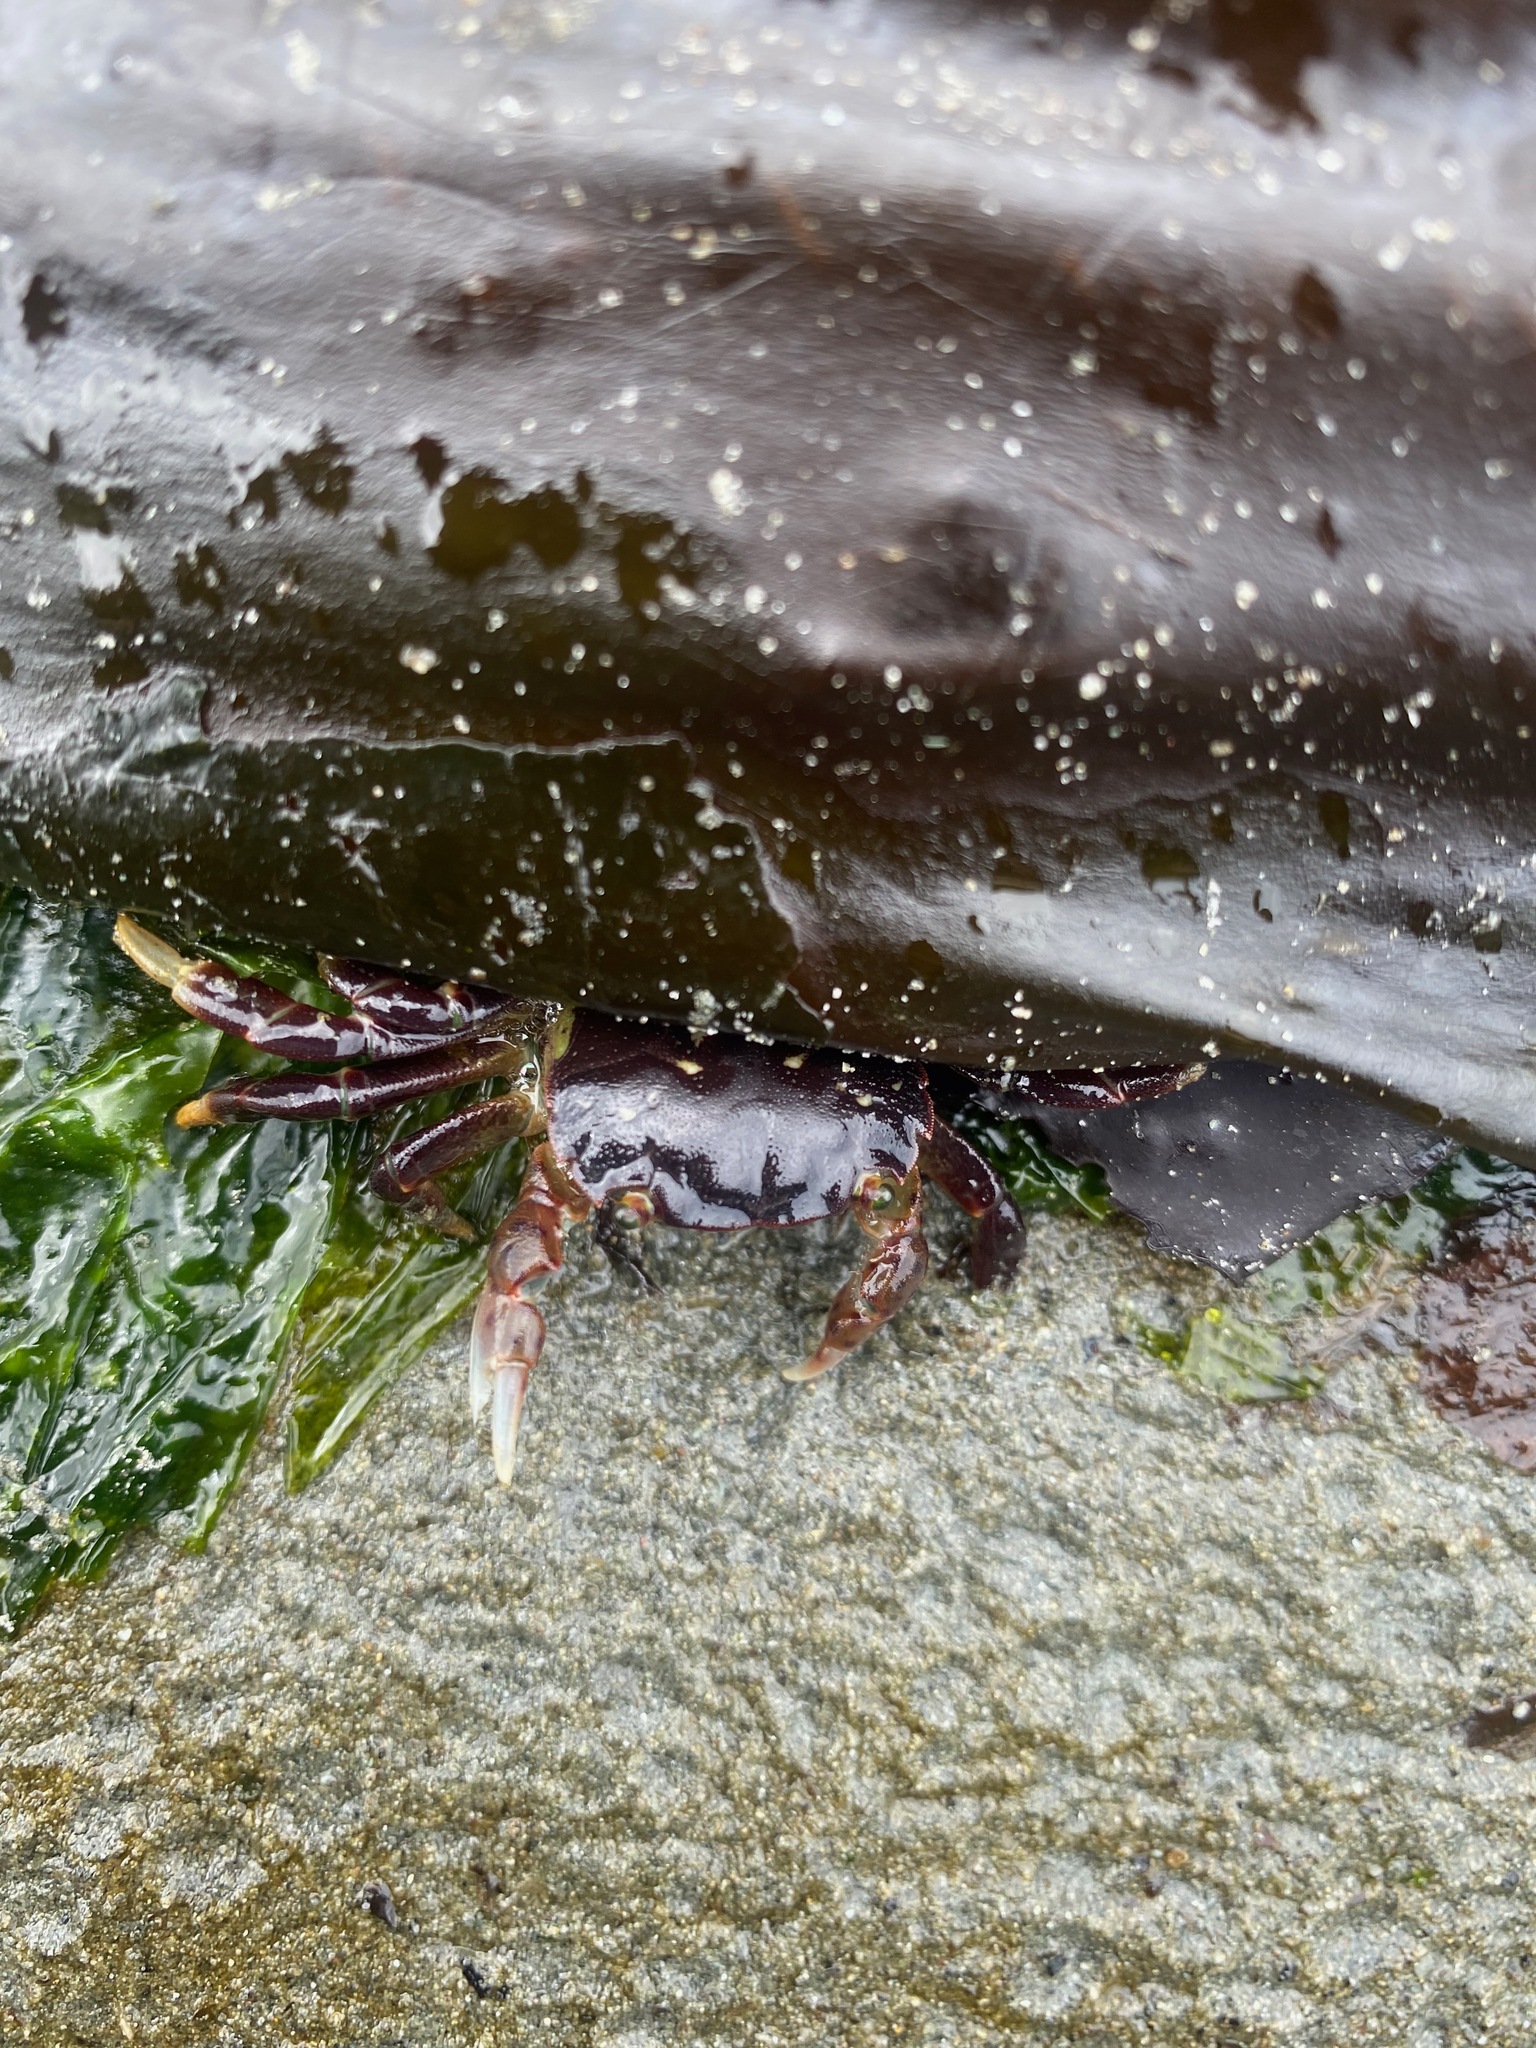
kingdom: Animalia
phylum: Arthropoda
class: Malacostraca
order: Decapoda
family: Varunidae
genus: Hemigrapsus
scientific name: Hemigrapsus nudus
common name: Purple shore crab
